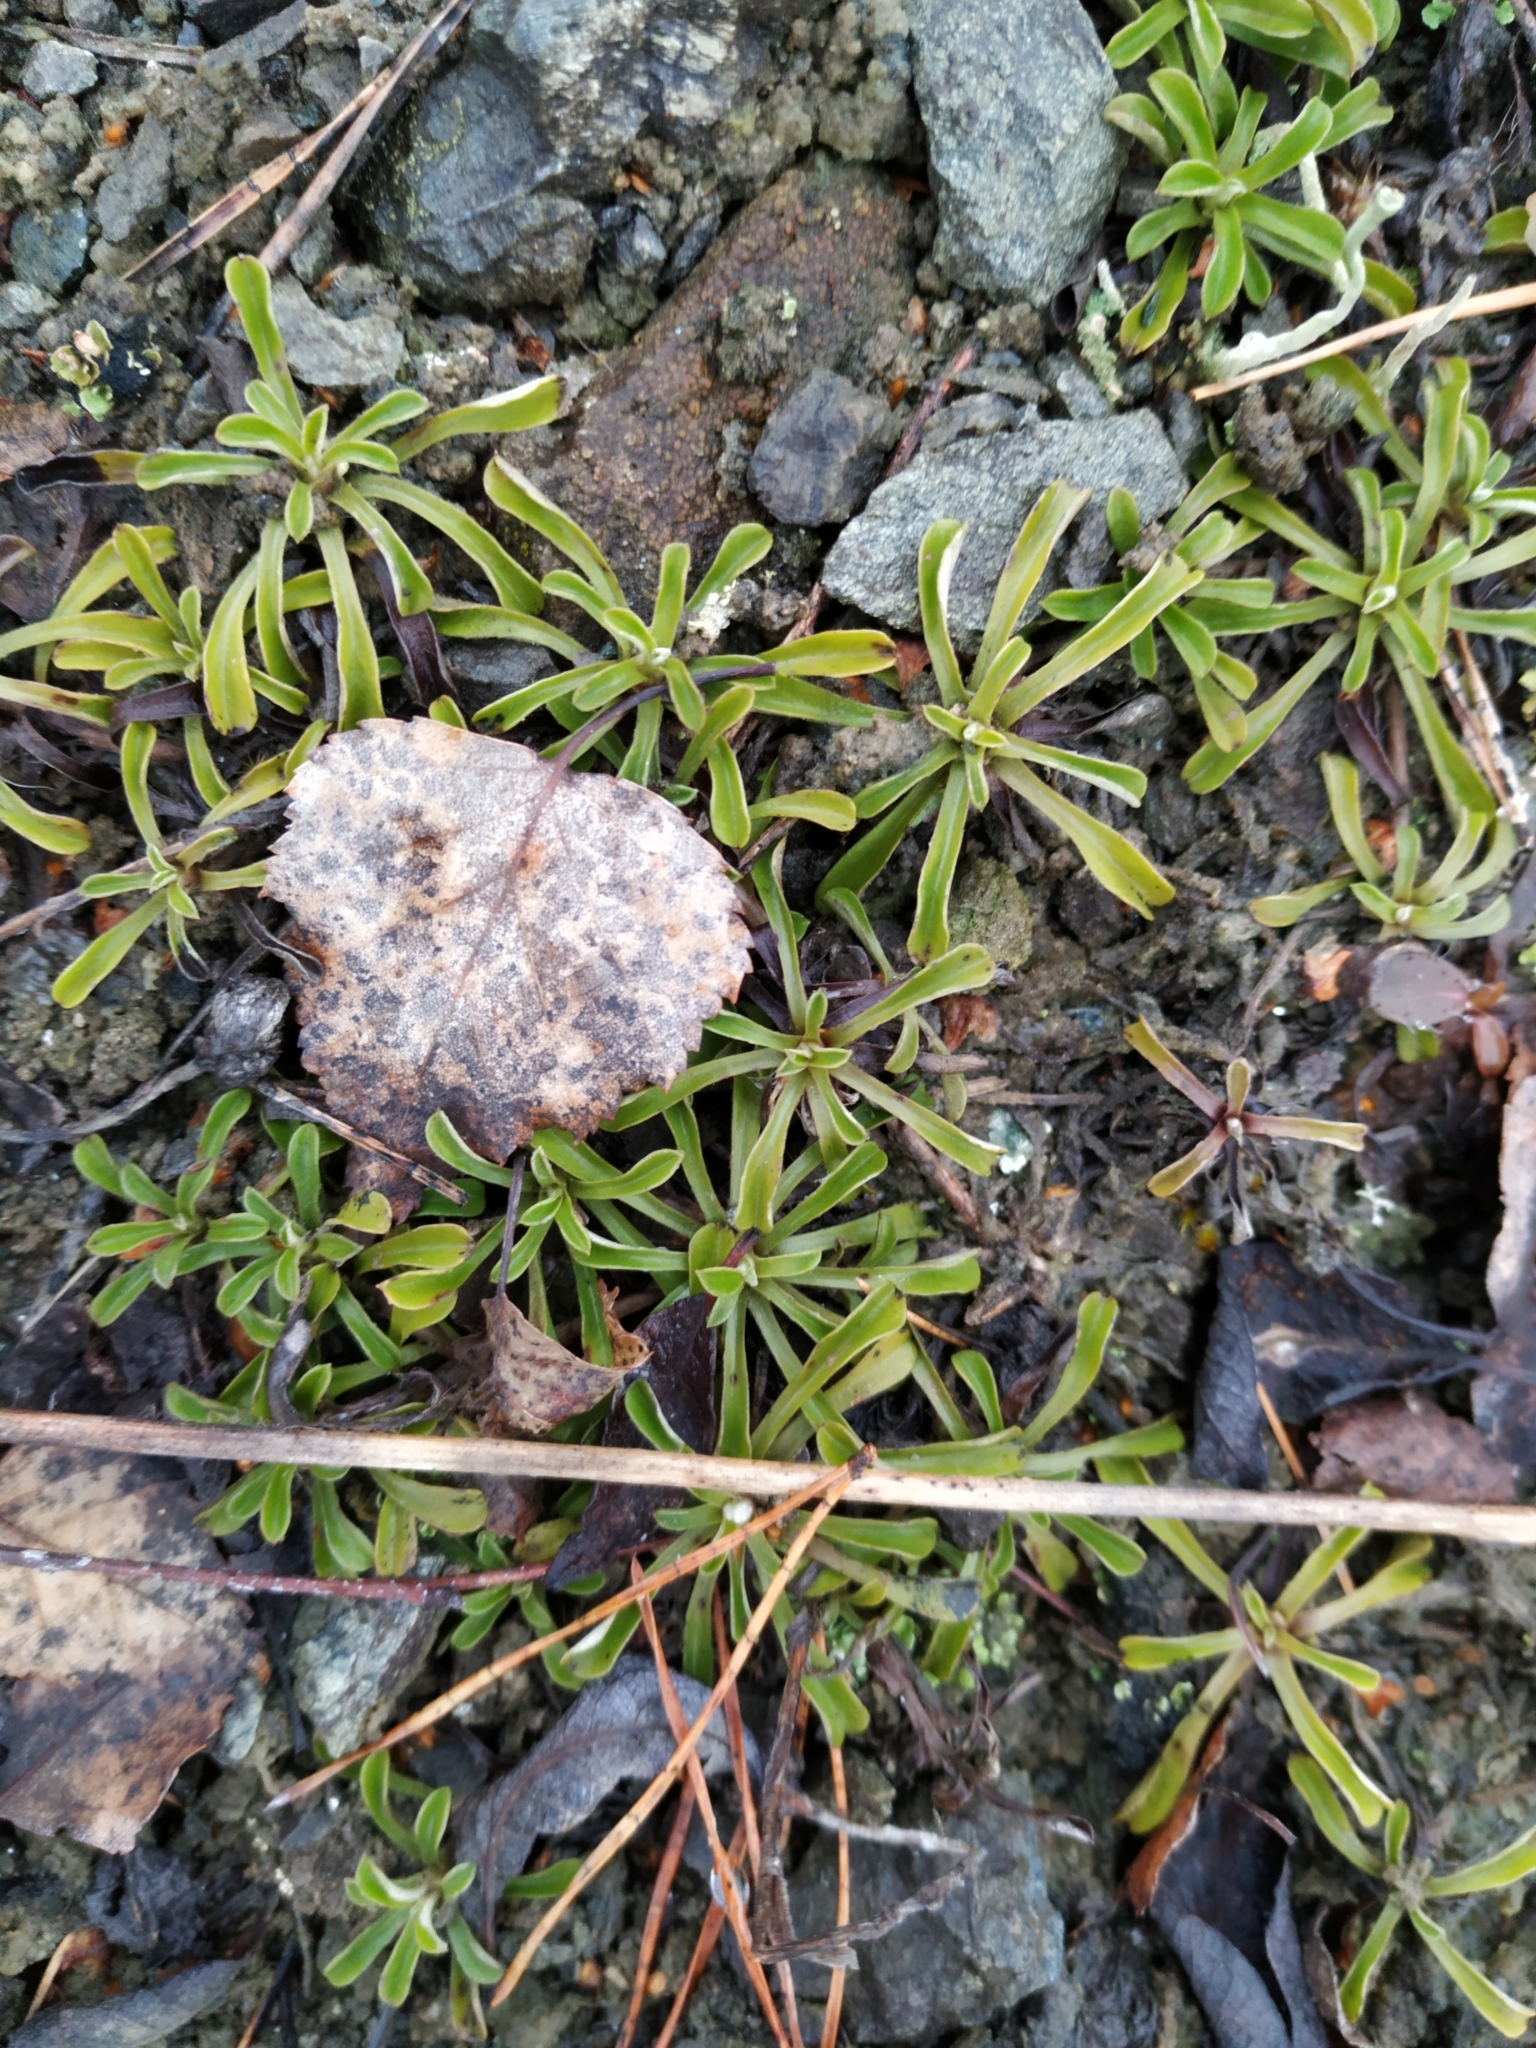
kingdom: Plantae
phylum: Tracheophyta
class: Magnoliopsida
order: Asterales
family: Asteraceae
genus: Antennaria
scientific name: Antennaria dioica
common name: Mountain everlasting
